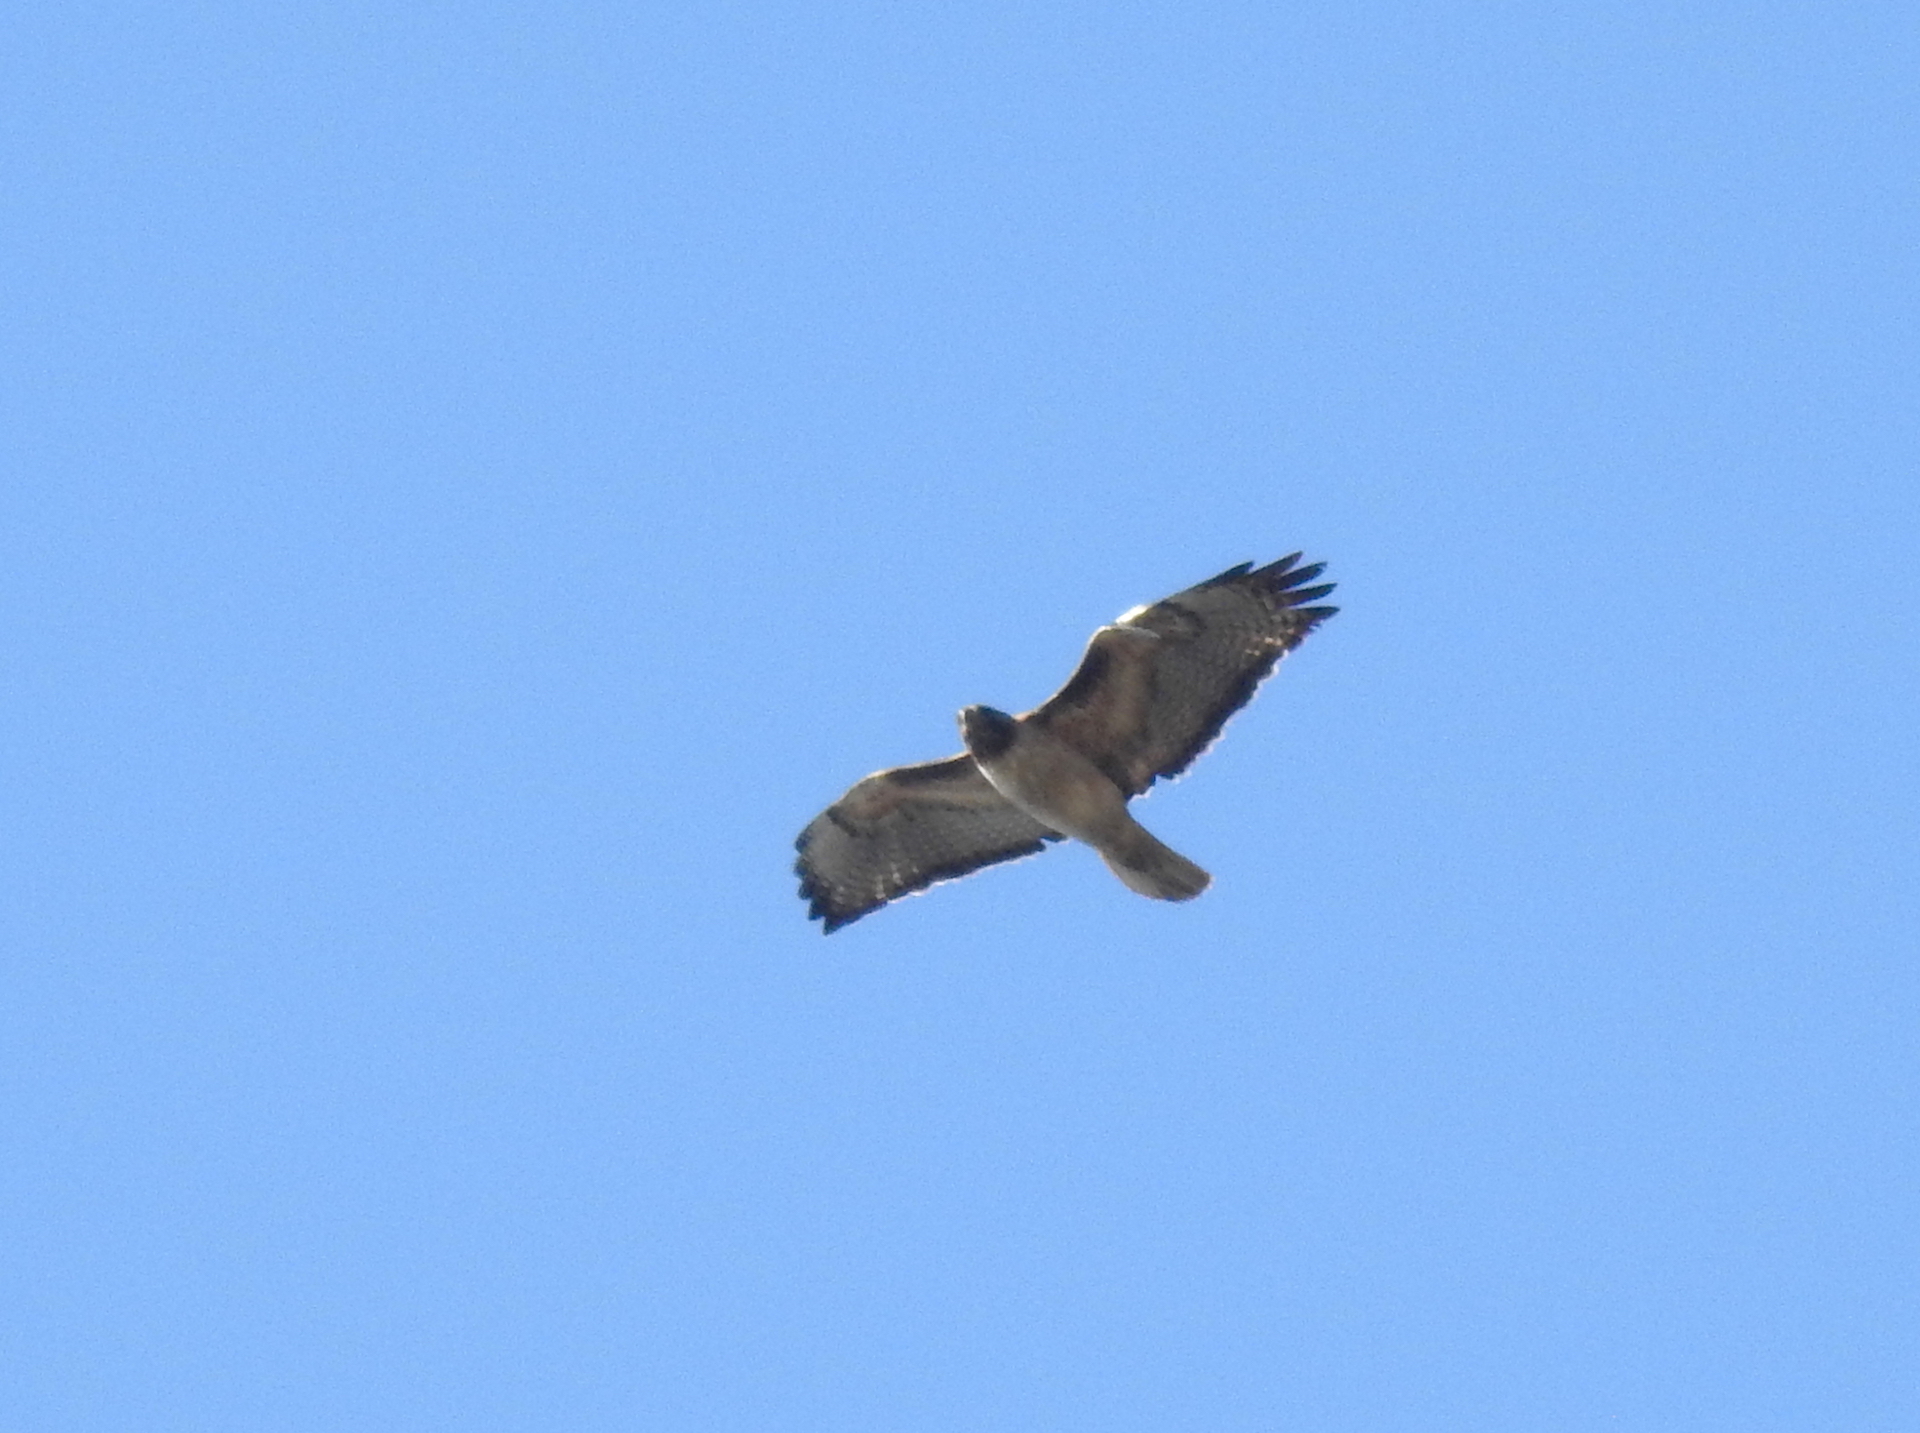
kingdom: Animalia
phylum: Chordata
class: Aves
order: Accipitriformes
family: Accipitridae
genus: Buteo
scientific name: Buteo jamaicensis
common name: Red-tailed hawk
